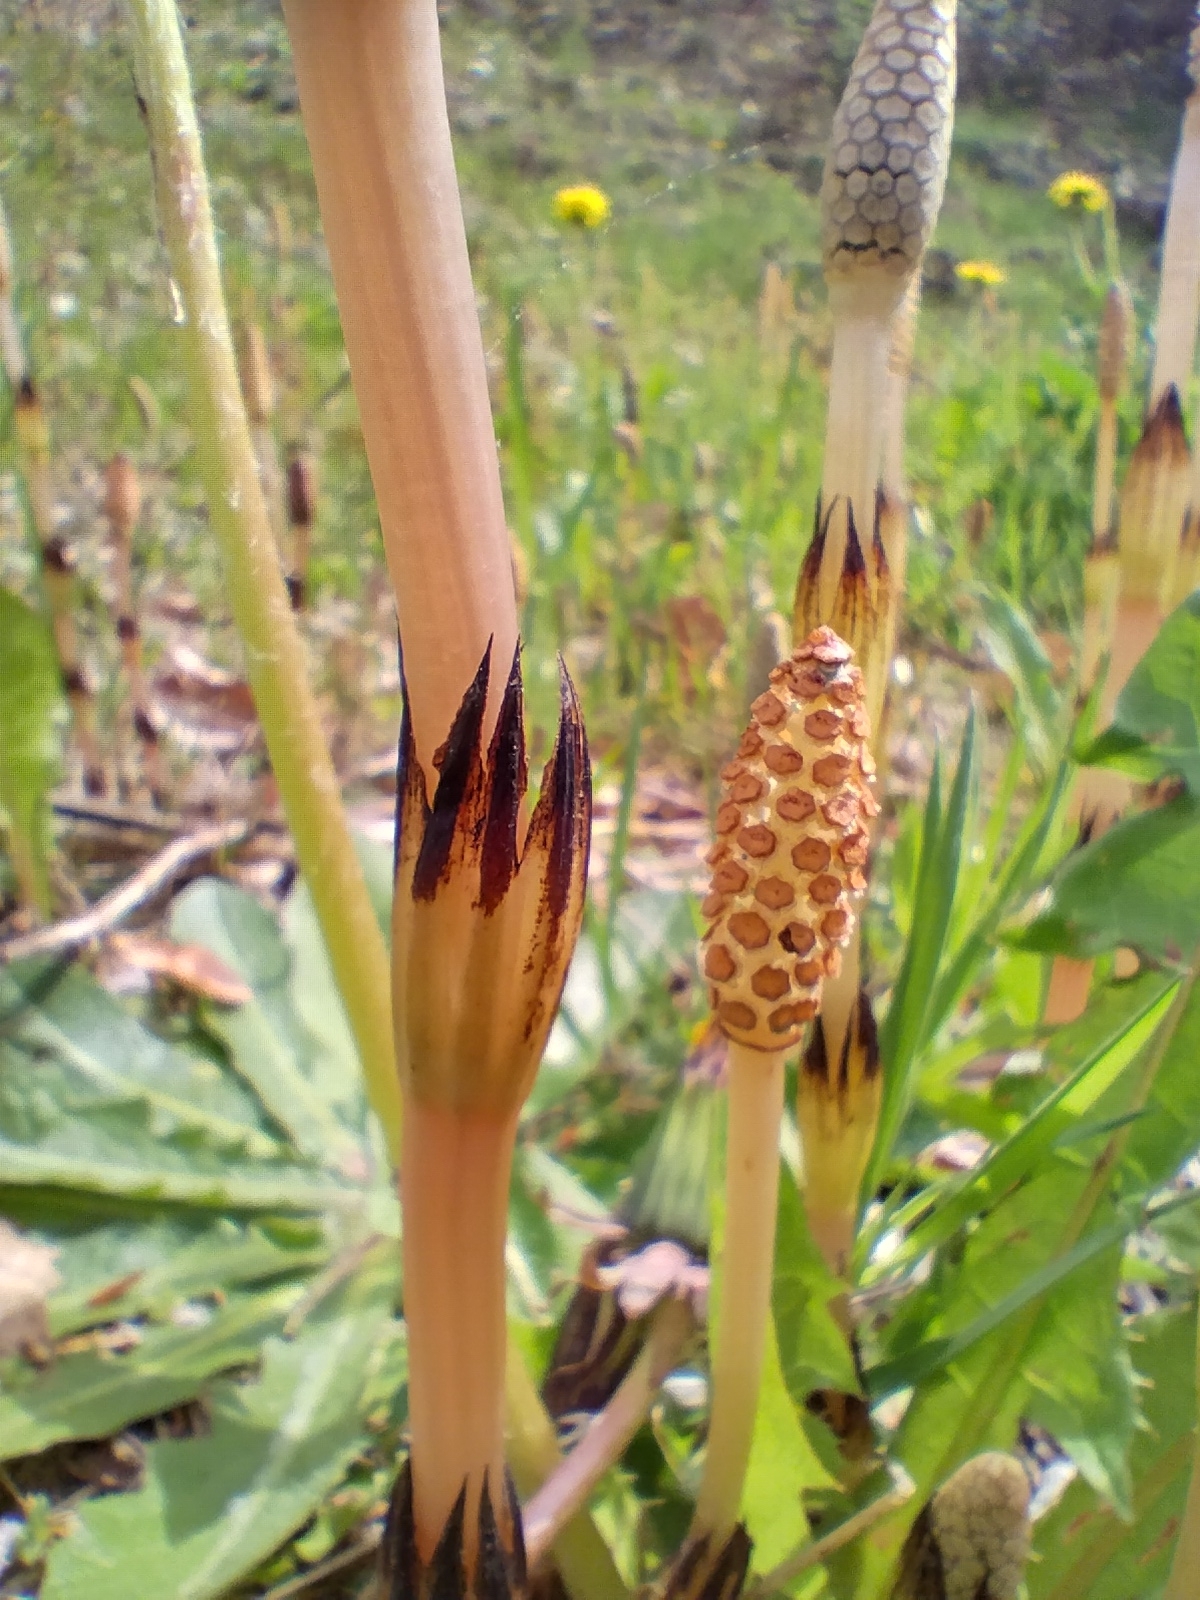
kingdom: Plantae
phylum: Tracheophyta
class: Polypodiopsida
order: Equisetales
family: Equisetaceae
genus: Equisetum
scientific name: Equisetum arvense
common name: Field horsetail
